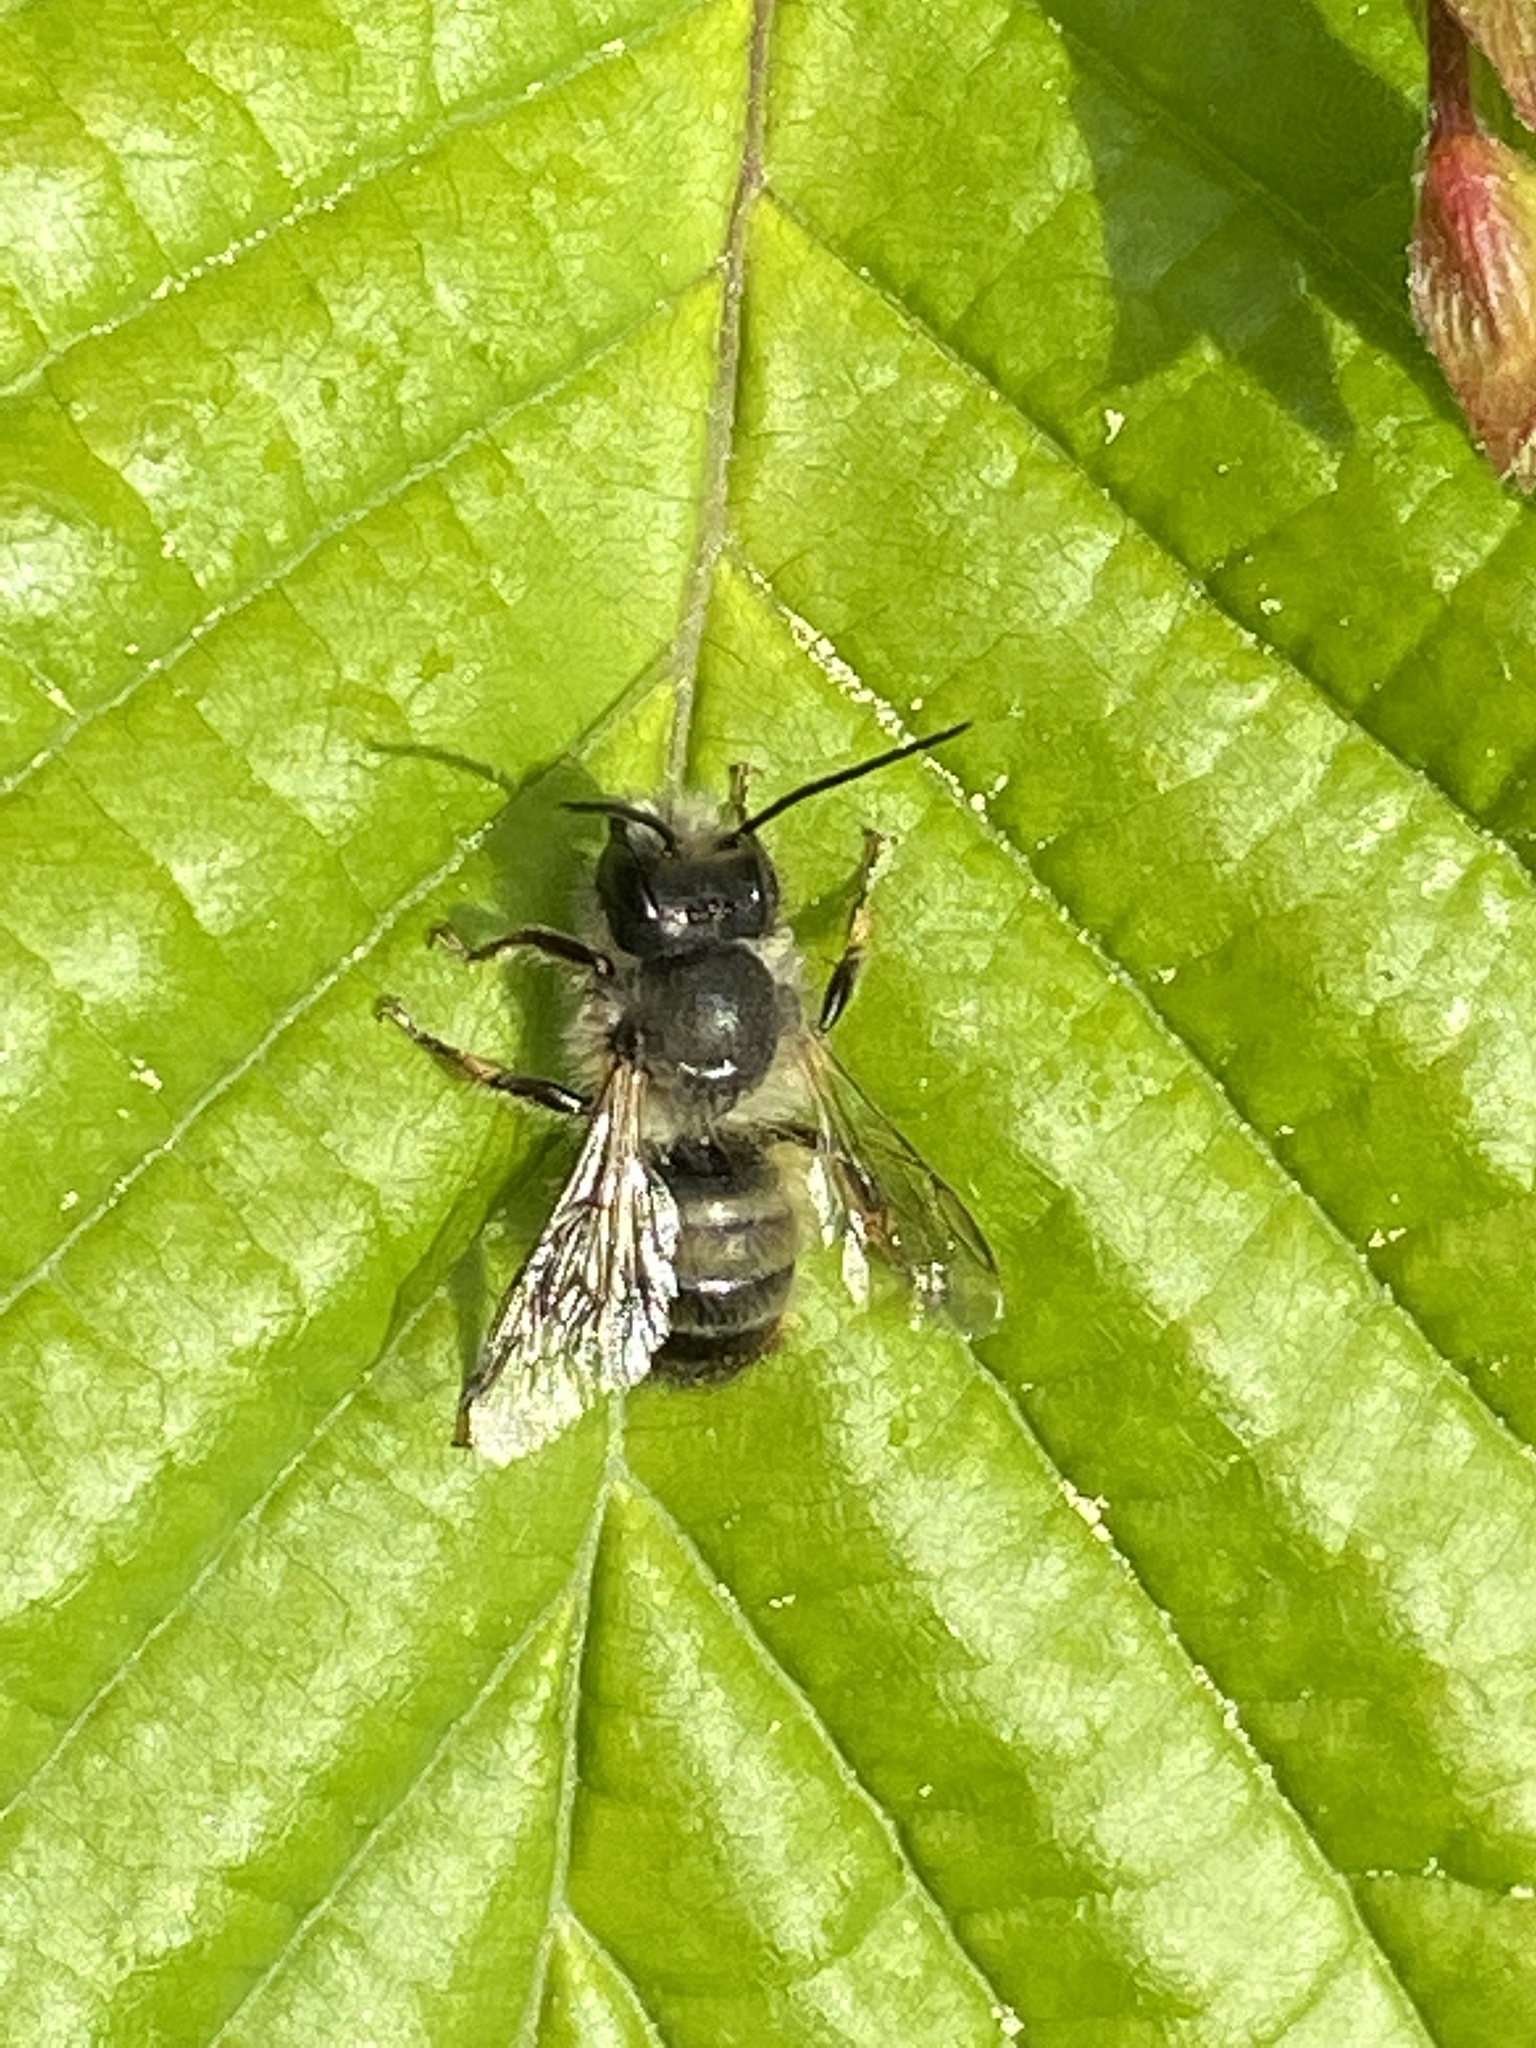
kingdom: Animalia
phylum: Arthropoda
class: Insecta
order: Hymenoptera
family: Megachilidae
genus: Osmia
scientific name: Osmia bicornis
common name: Red mason bee
